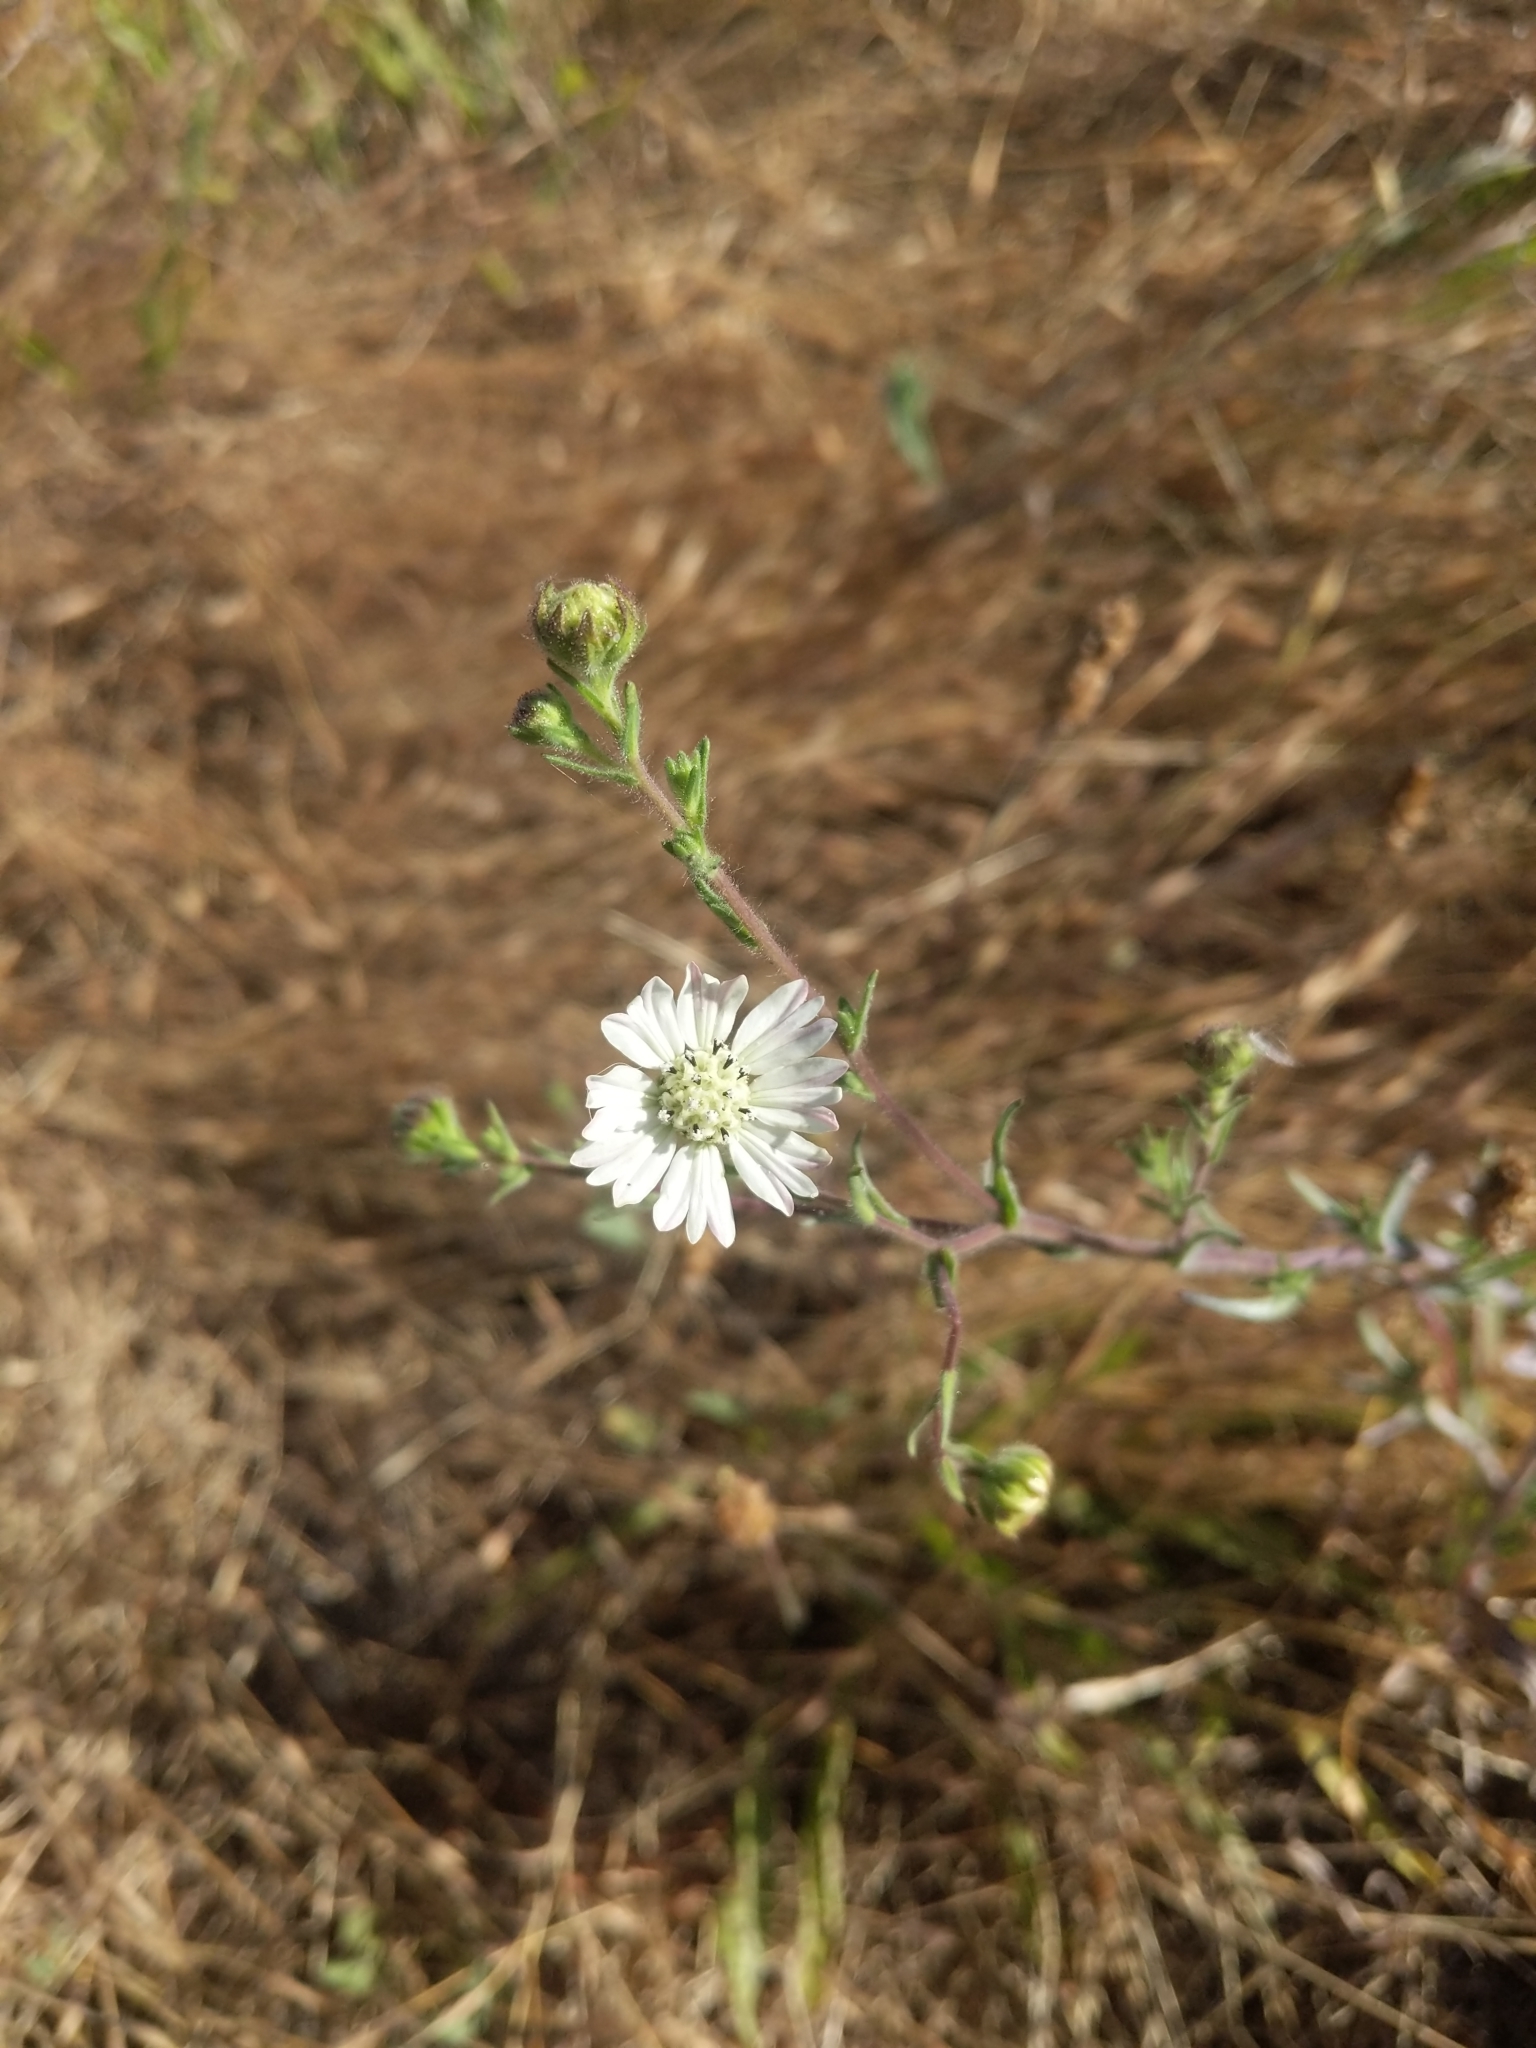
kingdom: Plantae
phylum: Tracheophyta
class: Magnoliopsida
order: Asterales
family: Asteraceae
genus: Hemizonia
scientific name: Hemizonia congesta
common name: Hayfield tarweed
